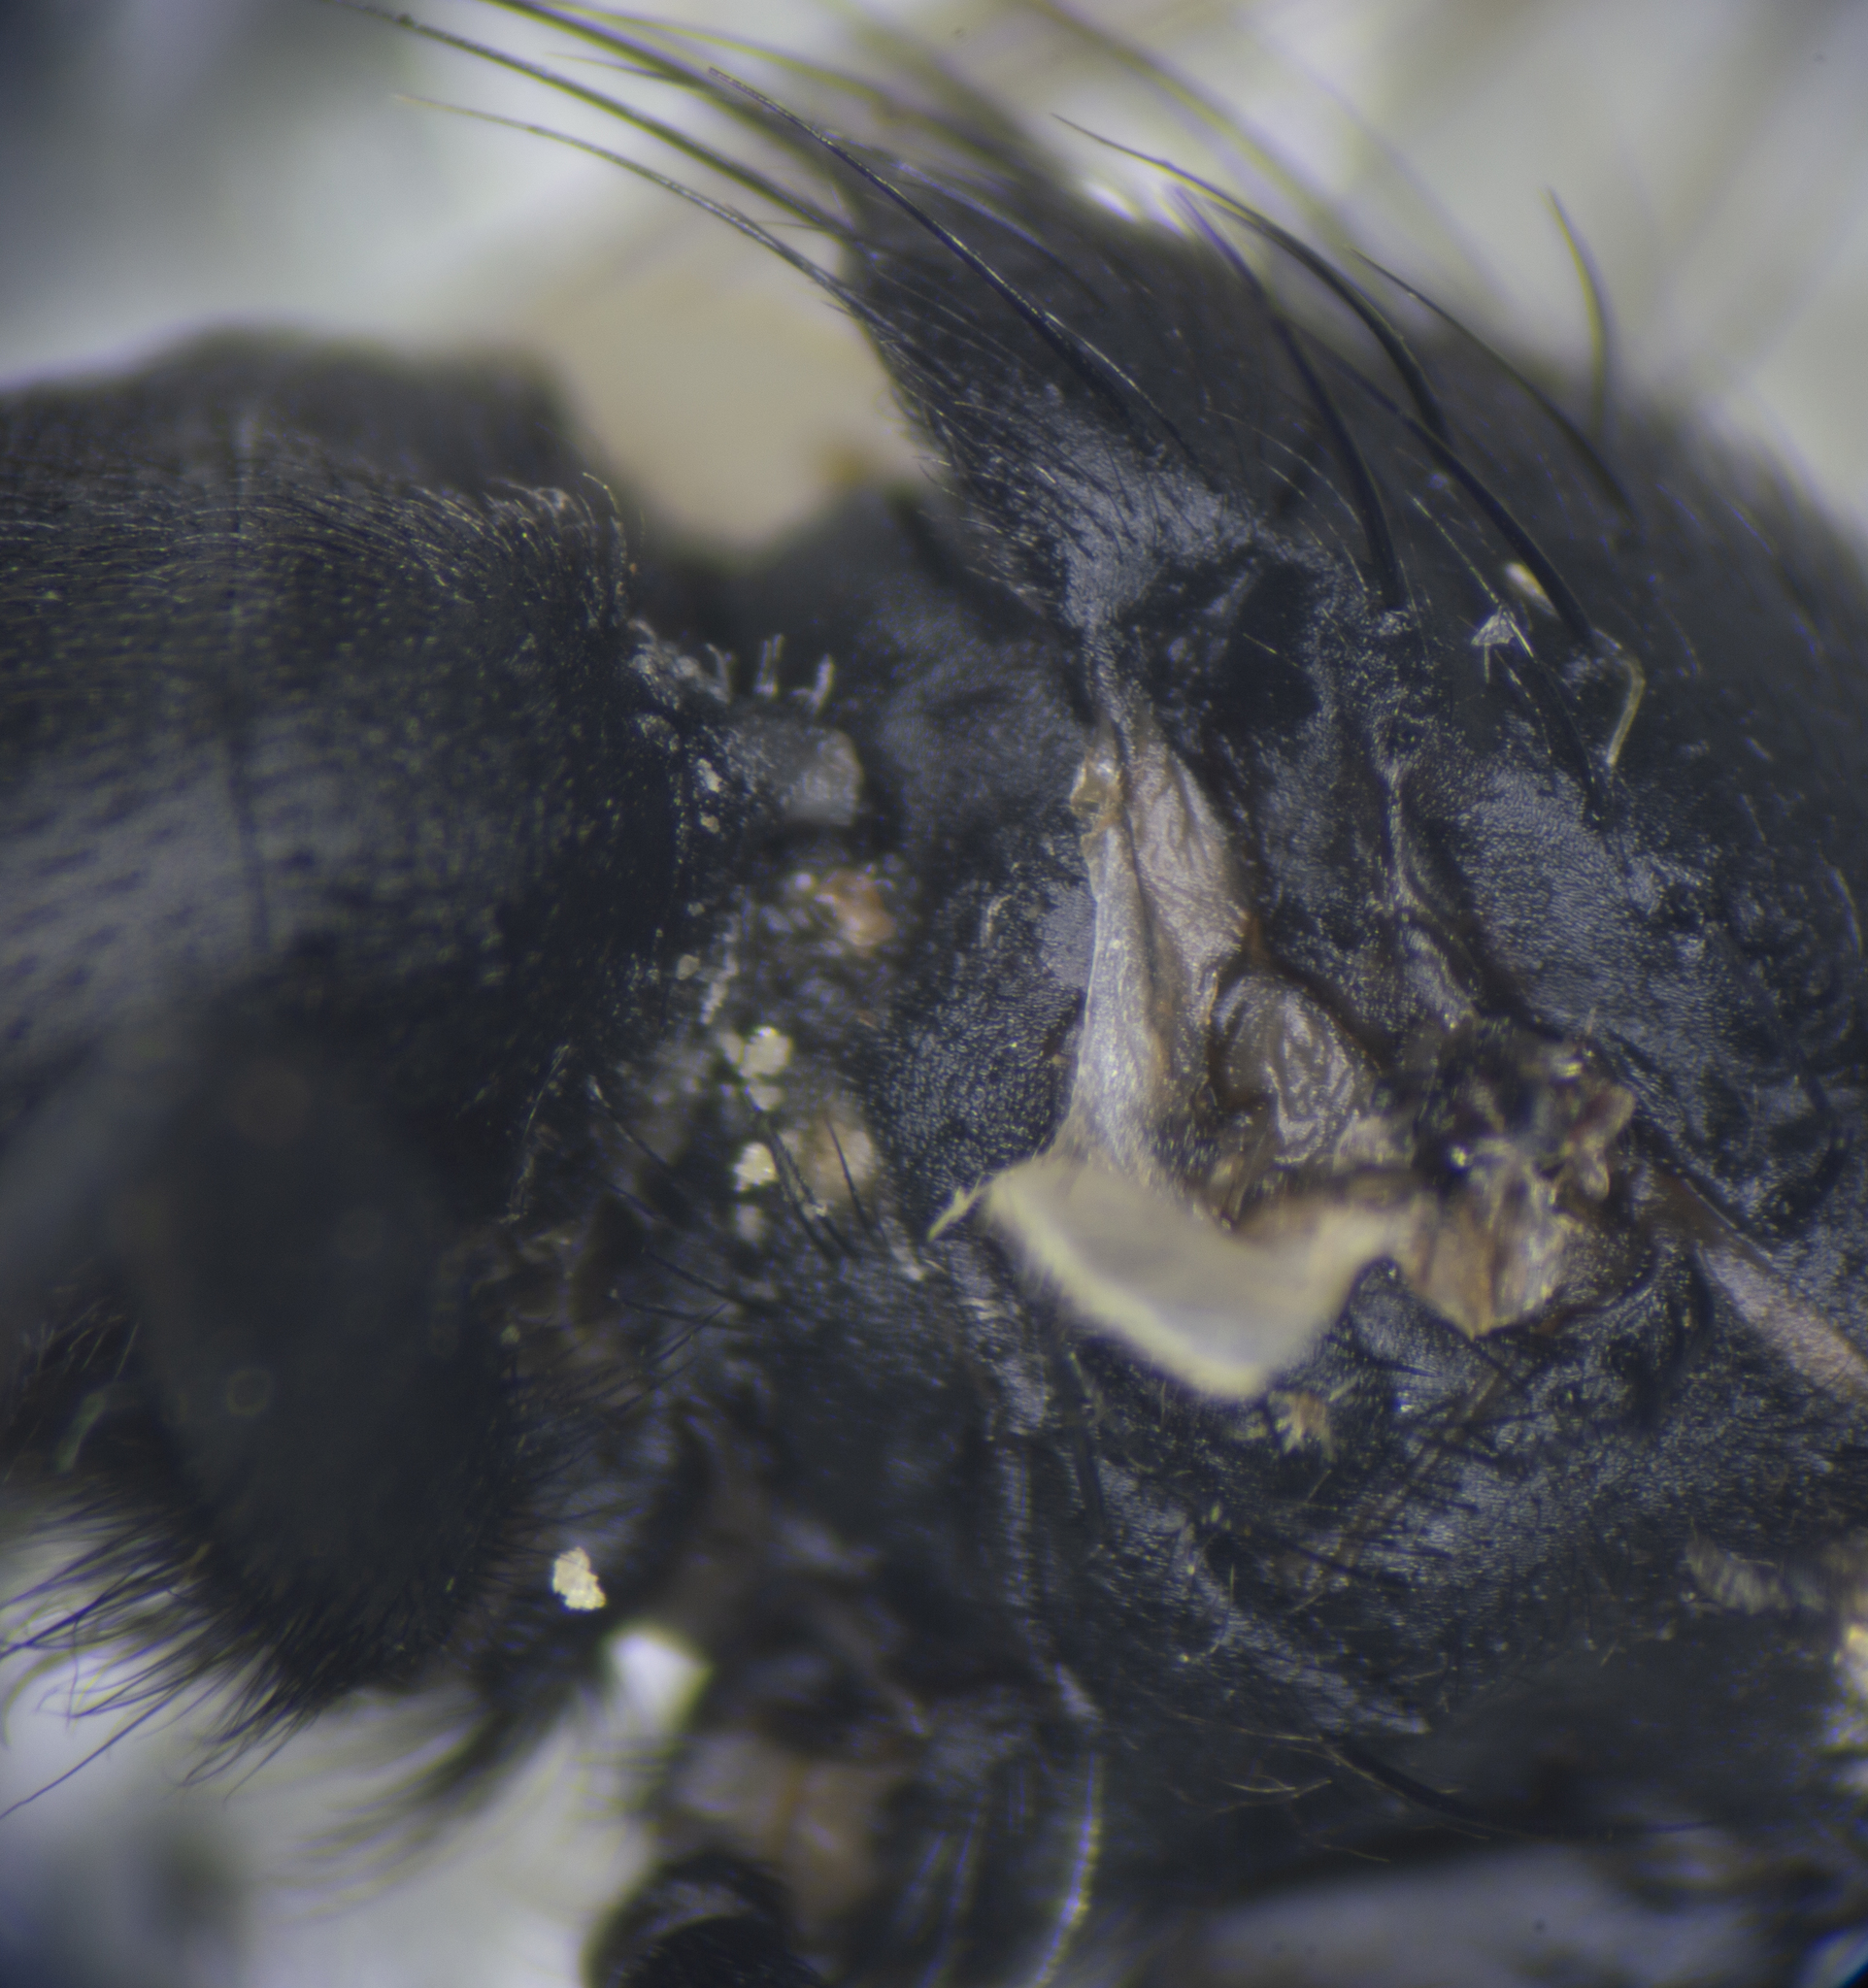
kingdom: Animalia
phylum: Arthropoda
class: Insecta
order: Diptera
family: Sarcophagidae
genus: Wohlfahrtia
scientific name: Wohlfahrtia magnifica
